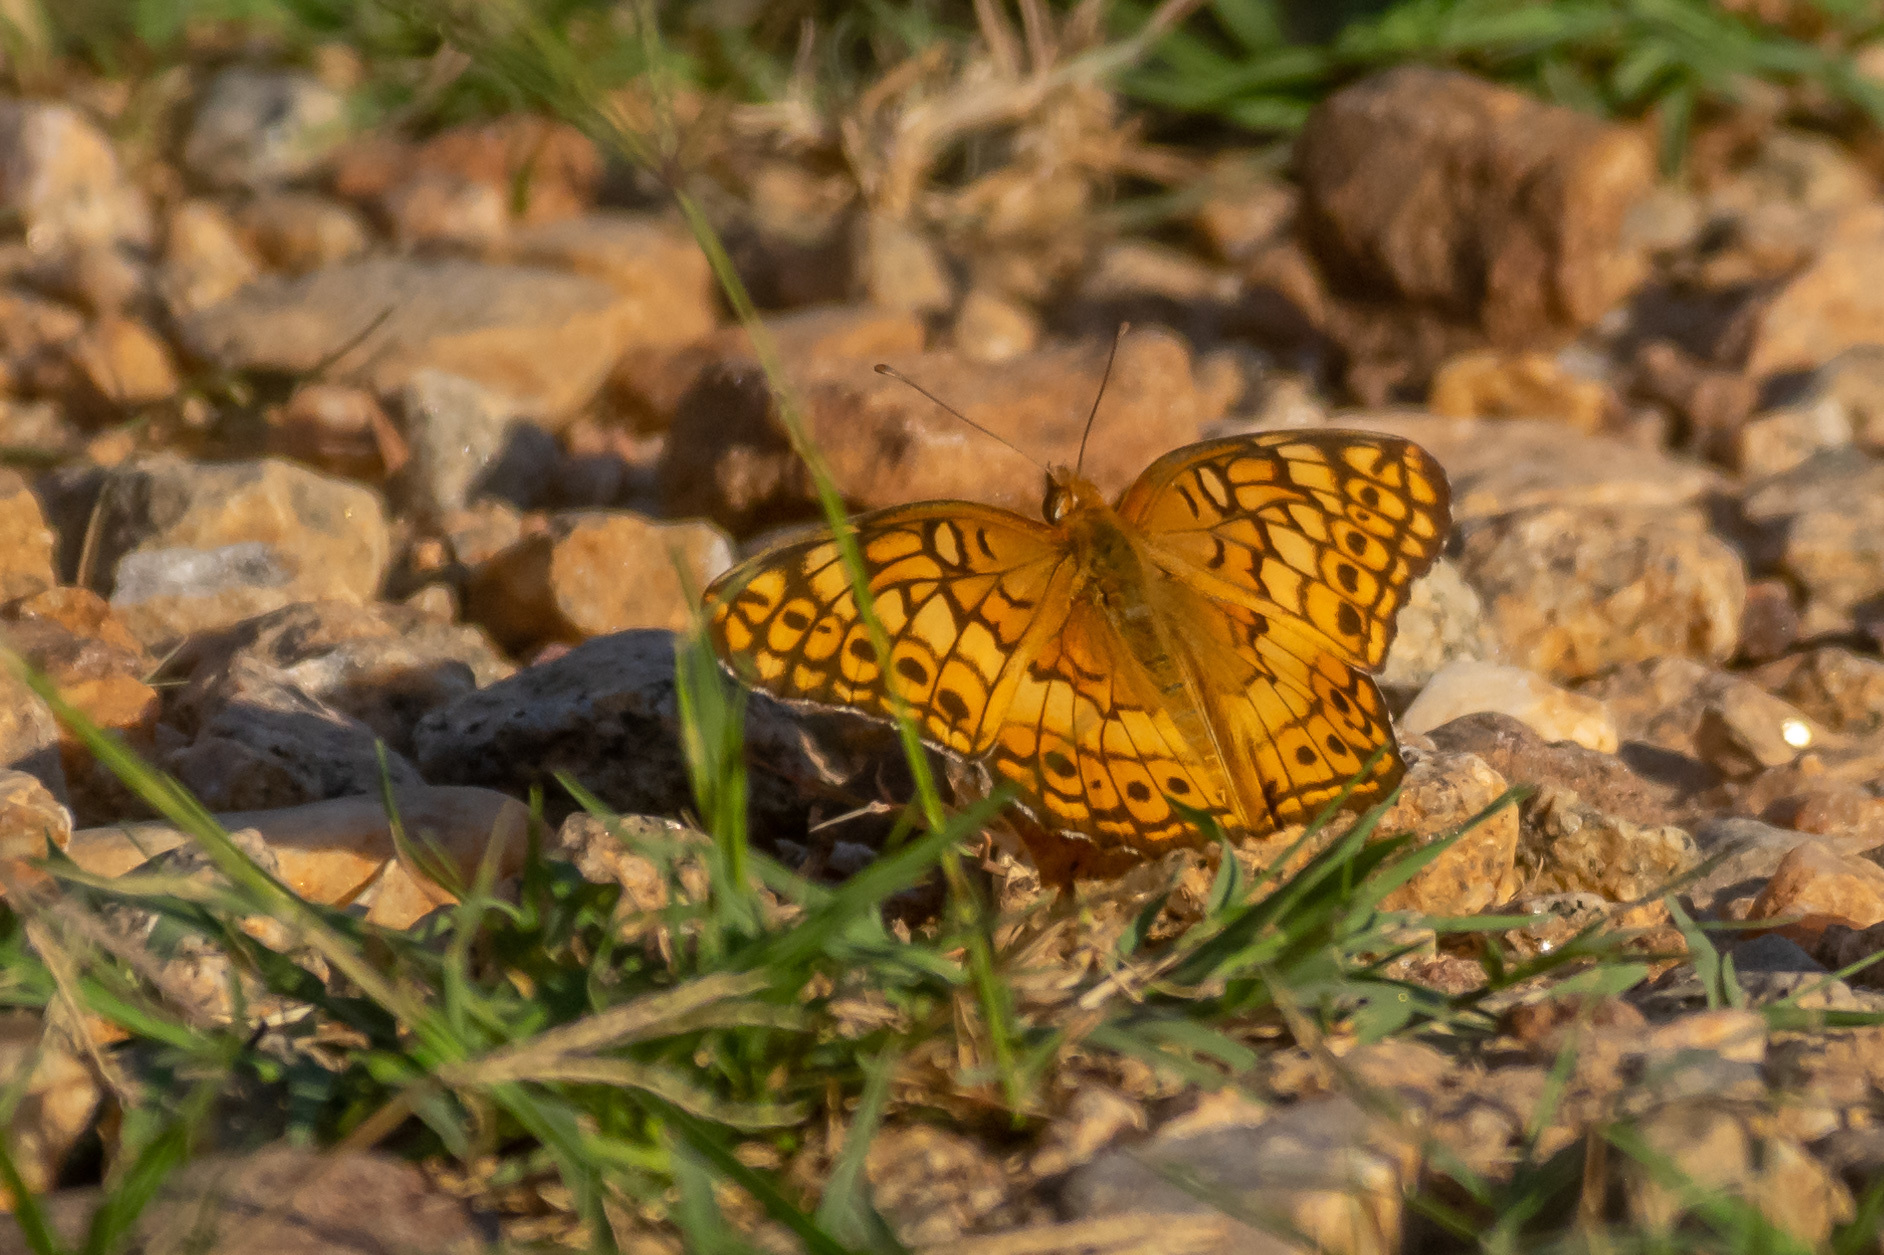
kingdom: Animalia
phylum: Arthropoda
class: Insecta
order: Lepidoptera
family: Nymphalidae
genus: Euptoieta
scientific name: Euptoieta claudia
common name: Variegated fritillary
